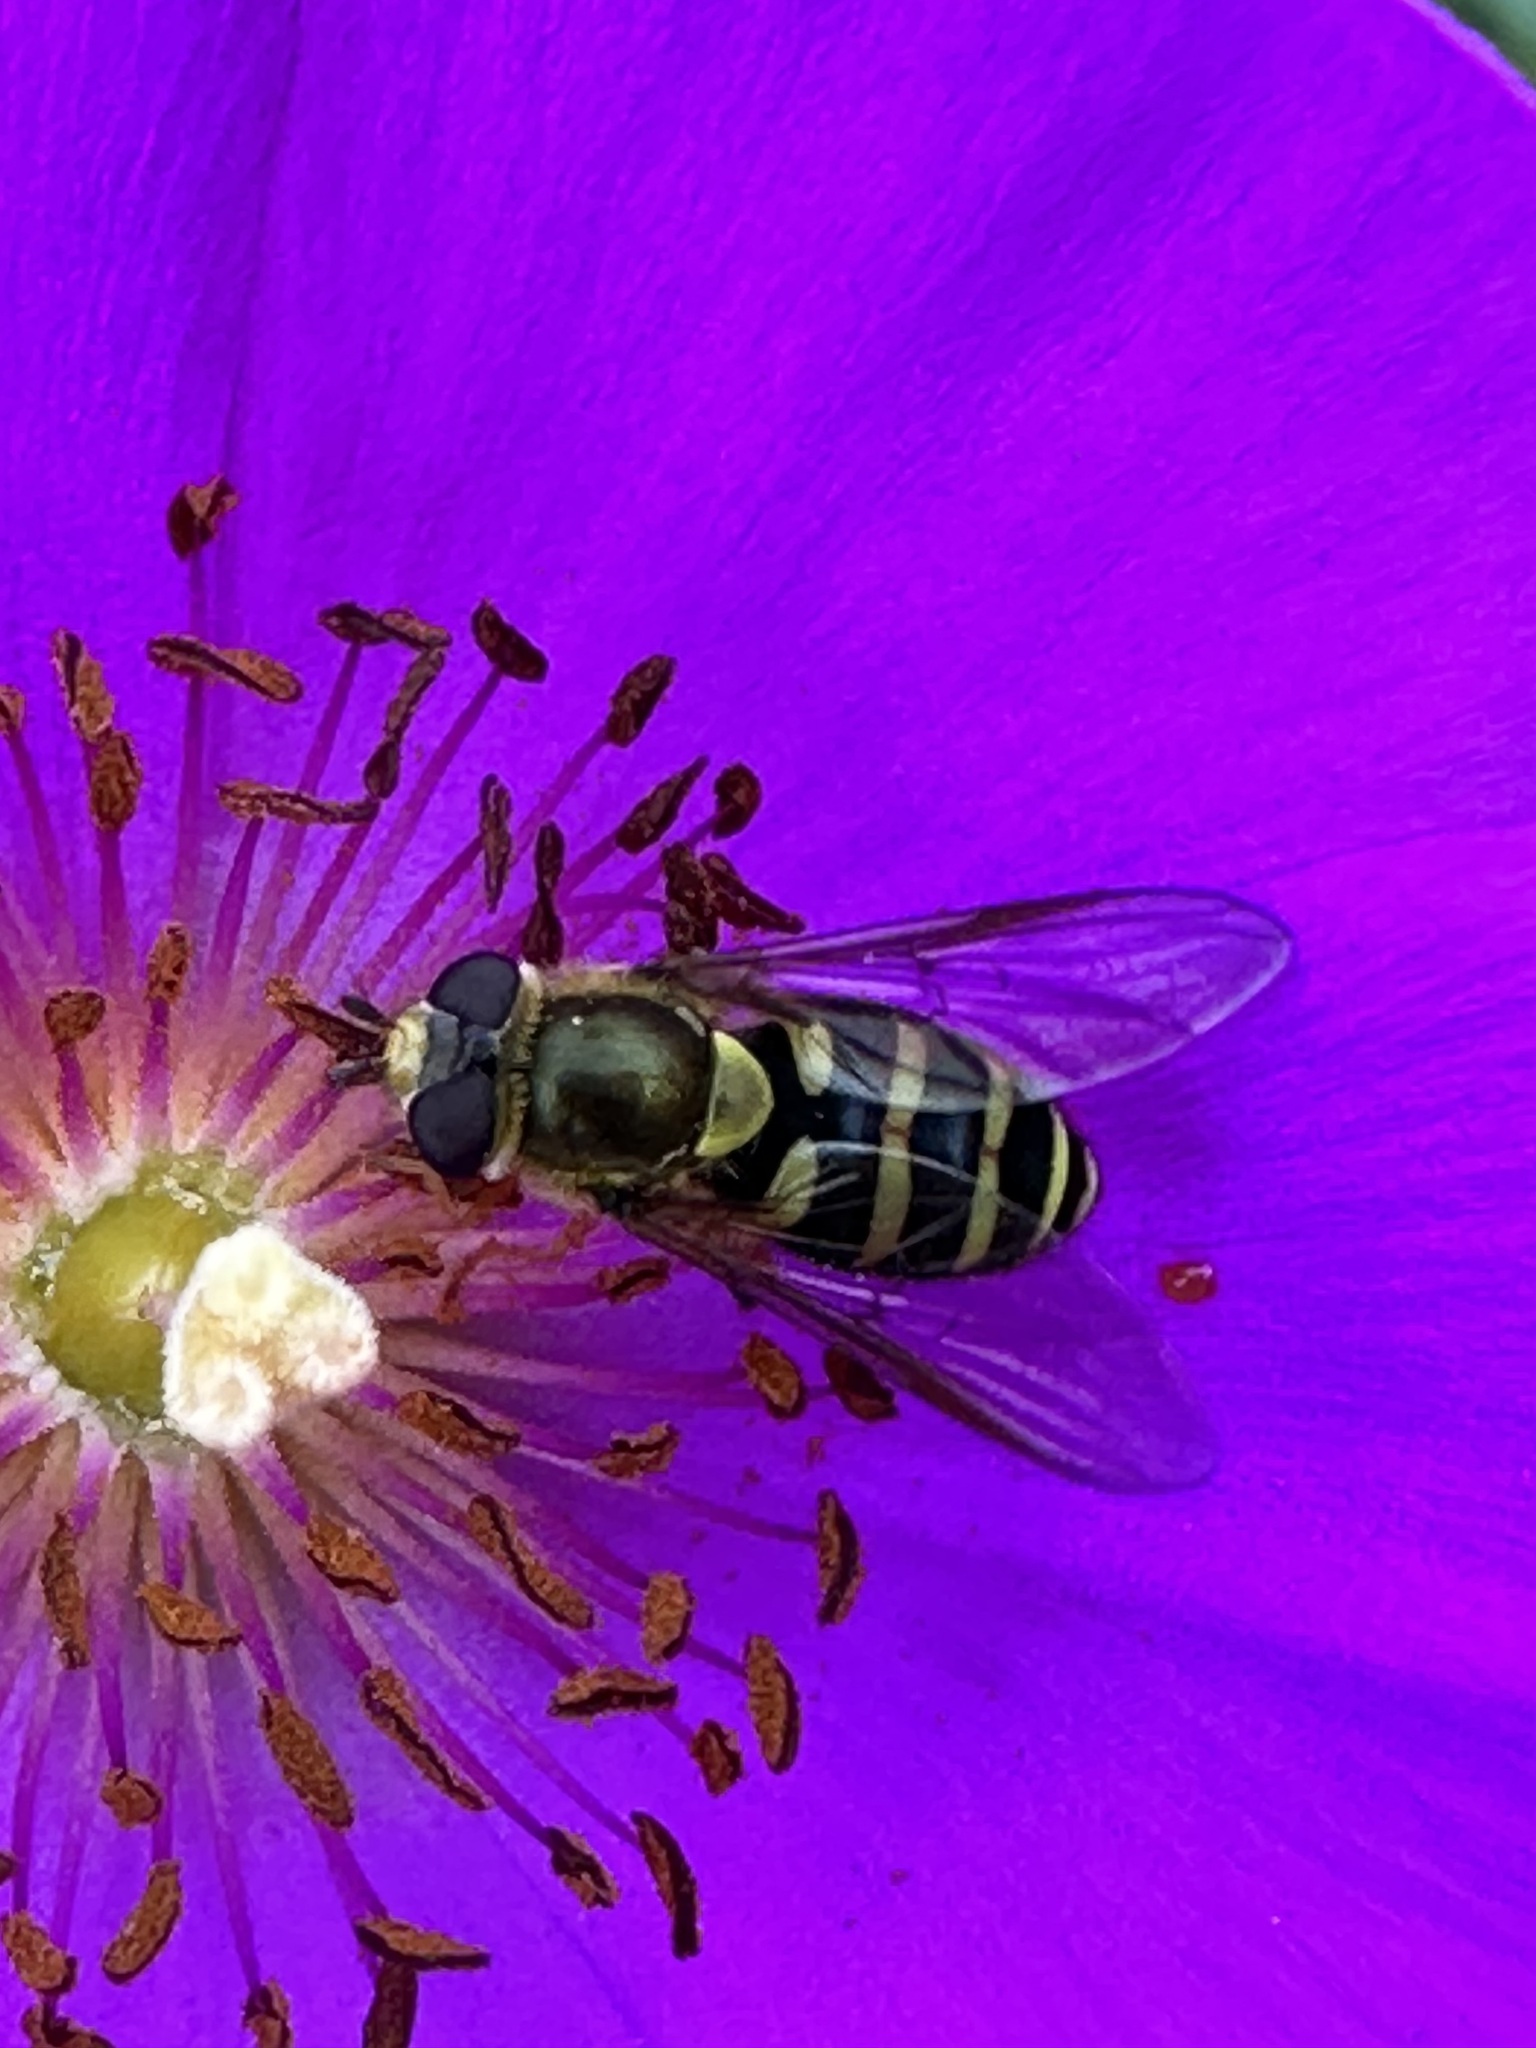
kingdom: Animalia
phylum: Arthropoda
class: Insecta
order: Diptera
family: Syrphidae
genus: Syrphus
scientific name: Syrphus opinator
